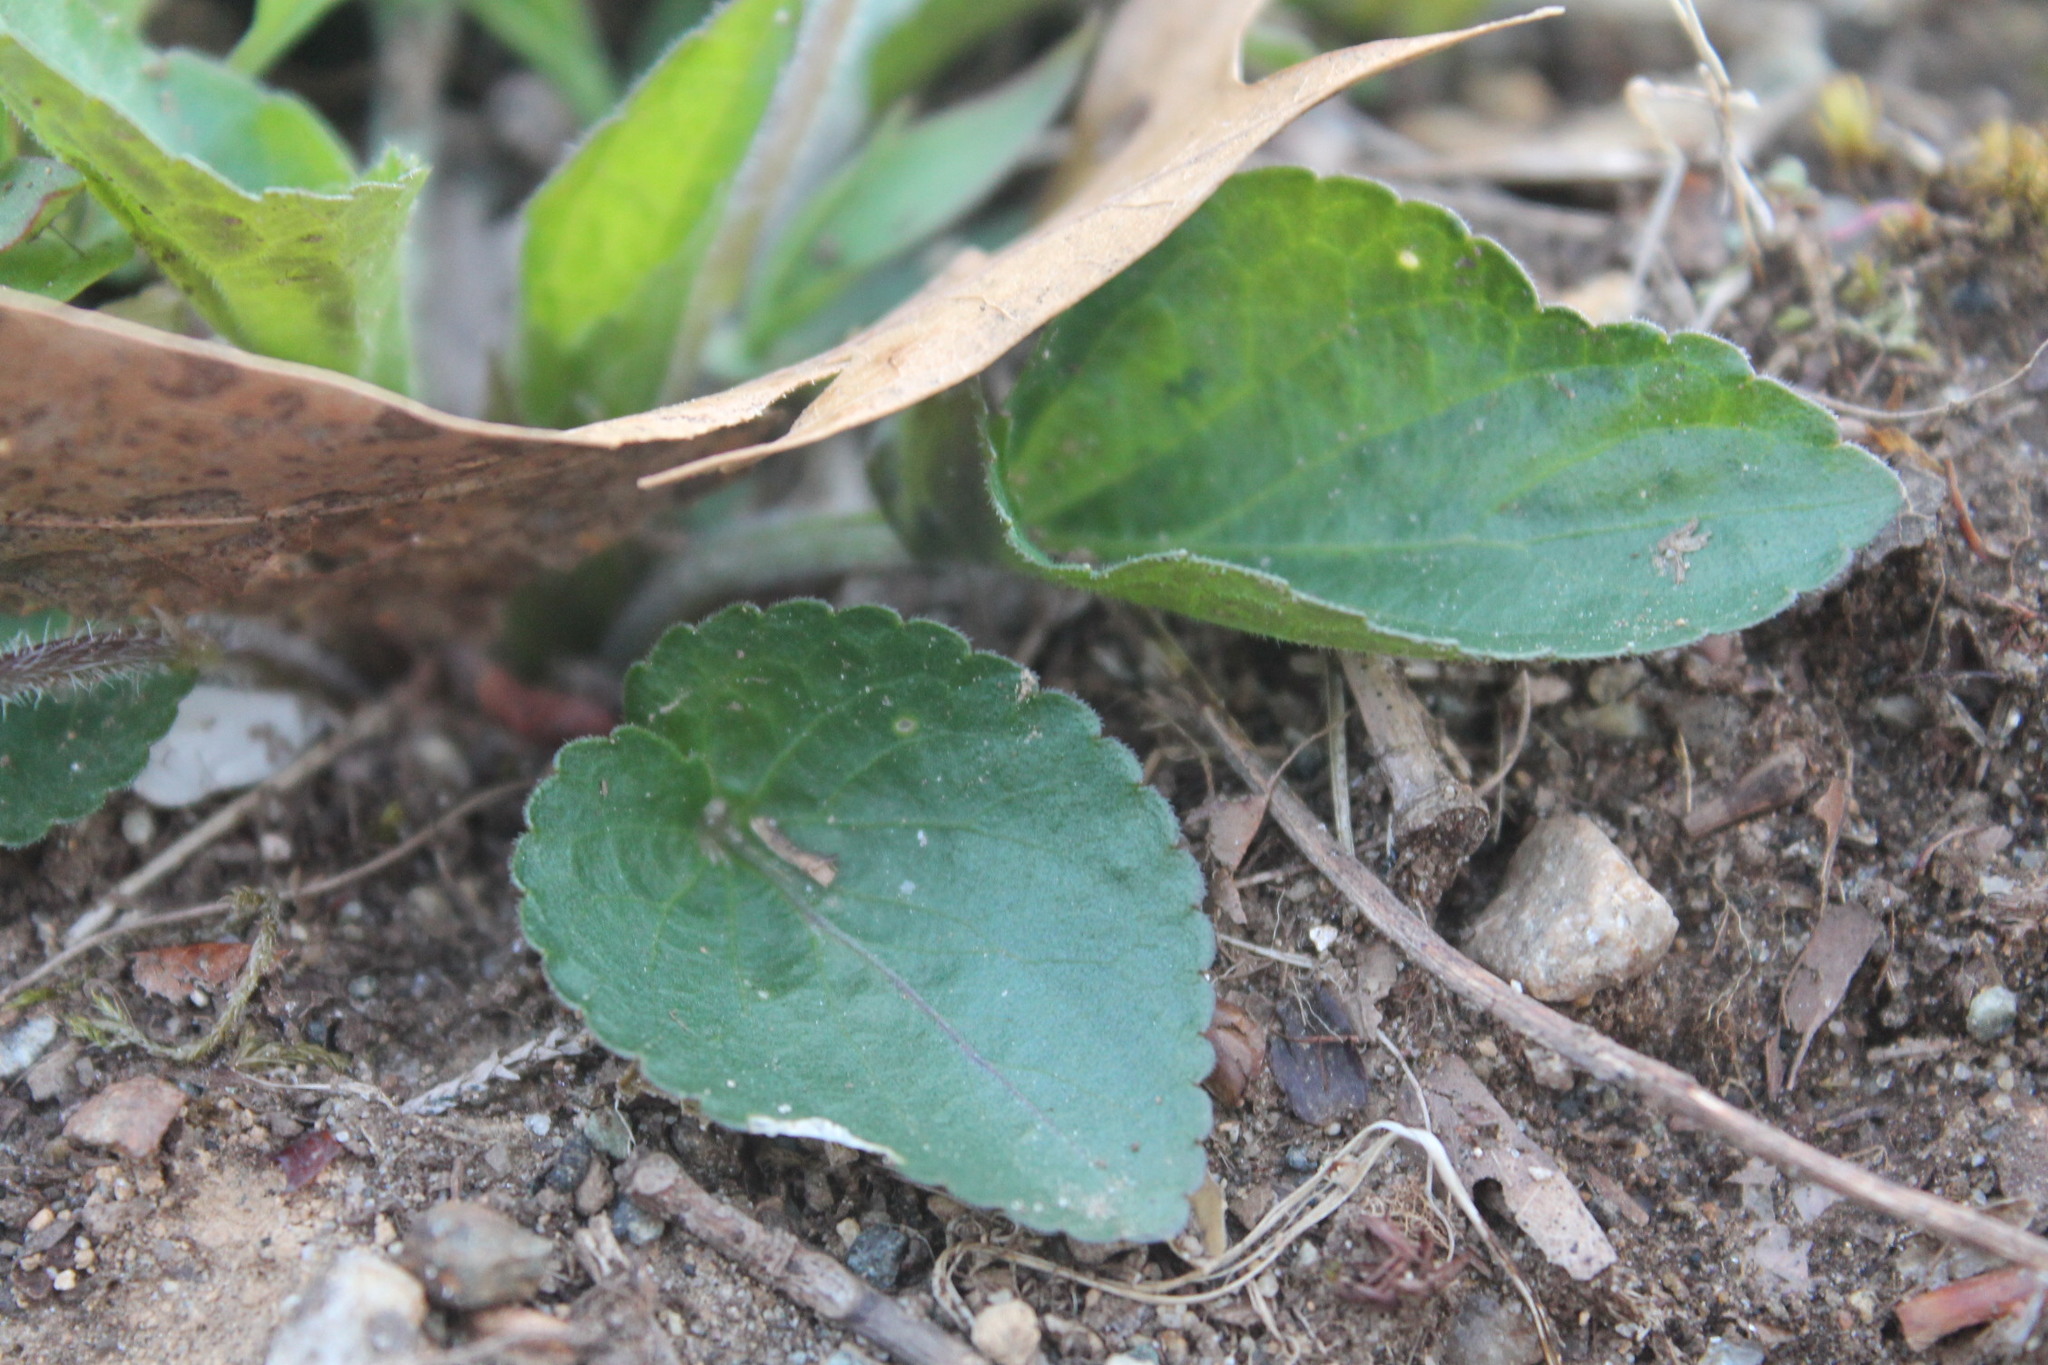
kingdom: Plantae
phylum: Tracheophyta
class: Magnoliopsida
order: Malpighiales
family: Violaceae
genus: Viola
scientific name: Viola sororia
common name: Dooryard violet
